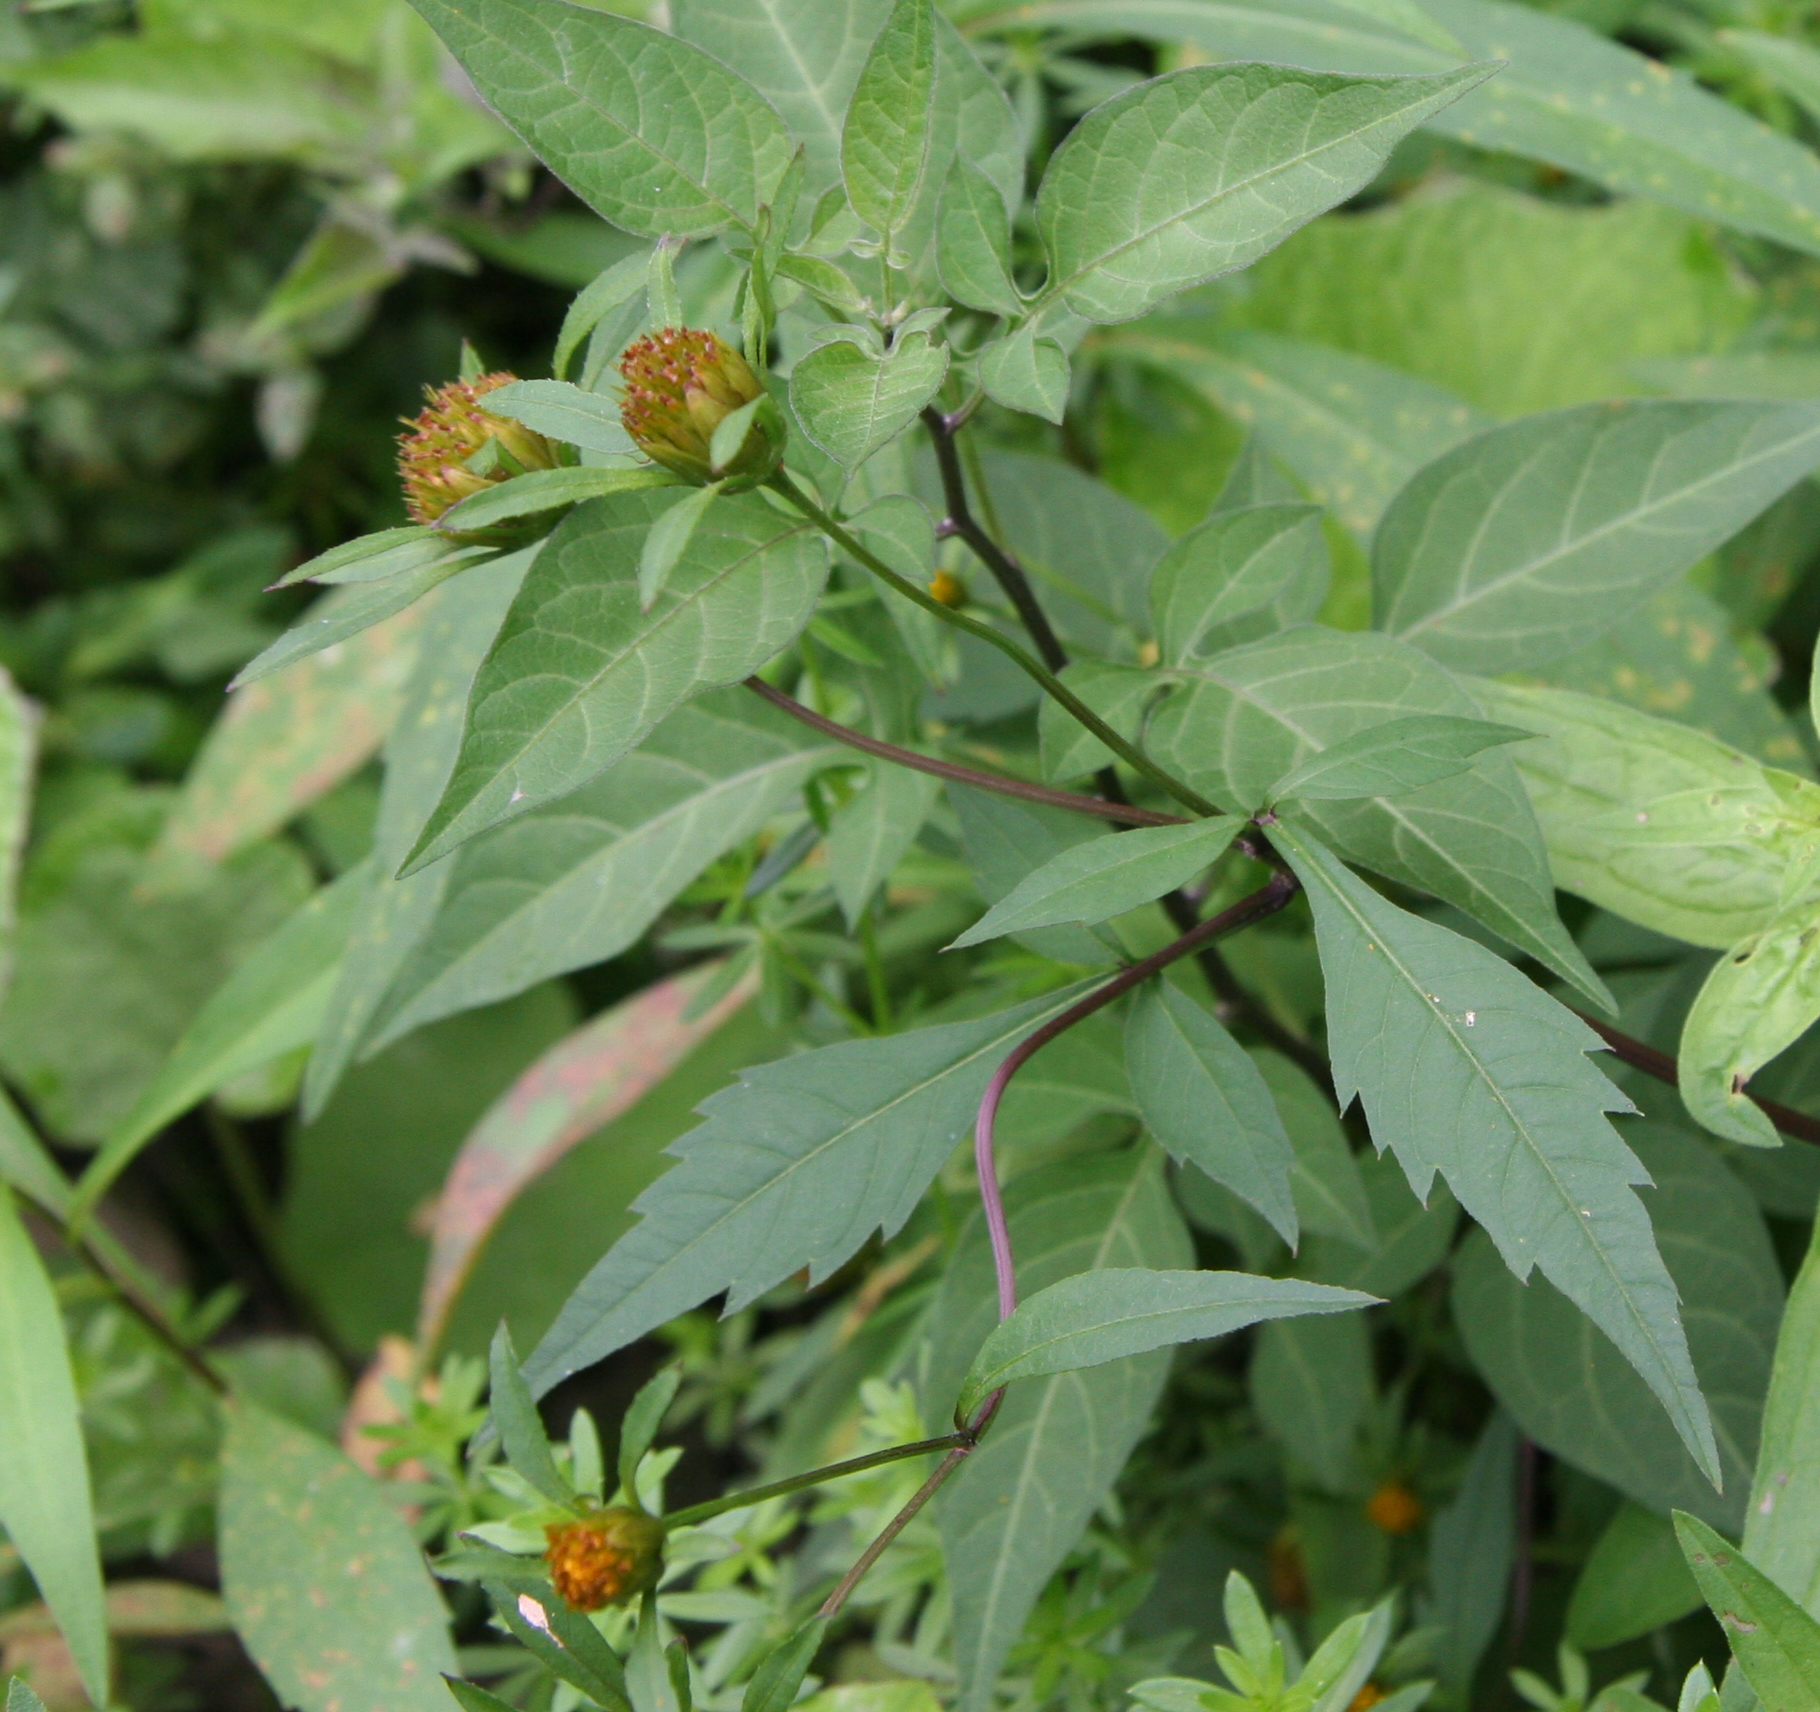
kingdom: Plantae
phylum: Tracheophyta
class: Magnoliopsida
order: Asterales
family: Asteraceae
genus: Bidens
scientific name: Bidens frondosa
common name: Beggarticks
